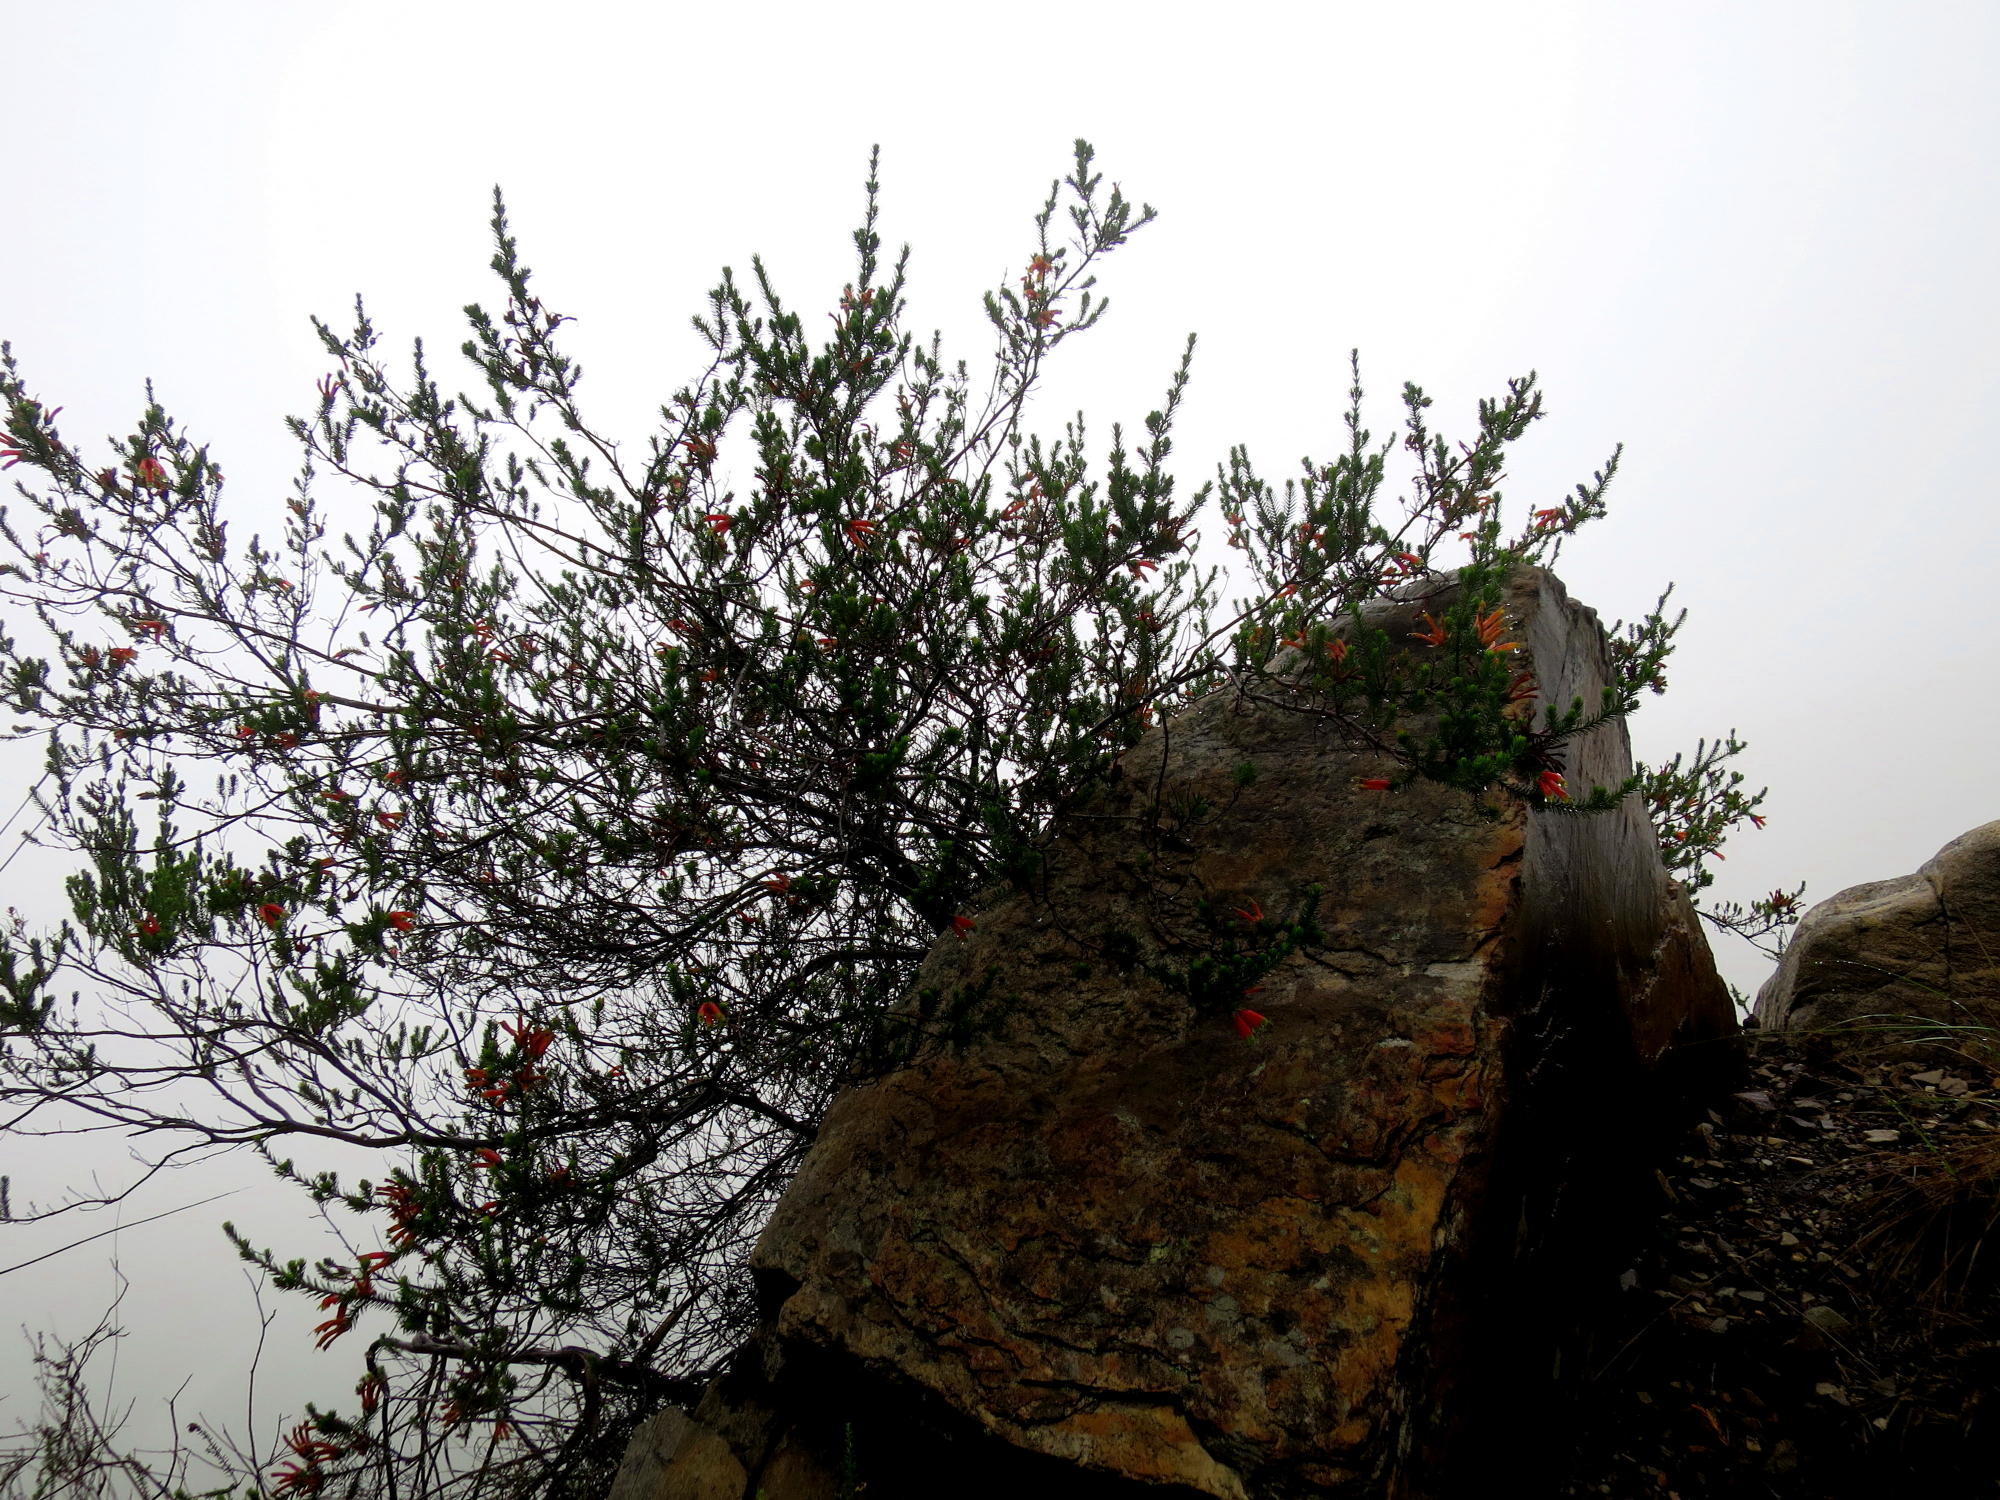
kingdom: Plantae
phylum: Tracheophyta
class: Magnoliopsida
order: Ericales
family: Ericaceae
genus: Erica
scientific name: Erica unicolor
